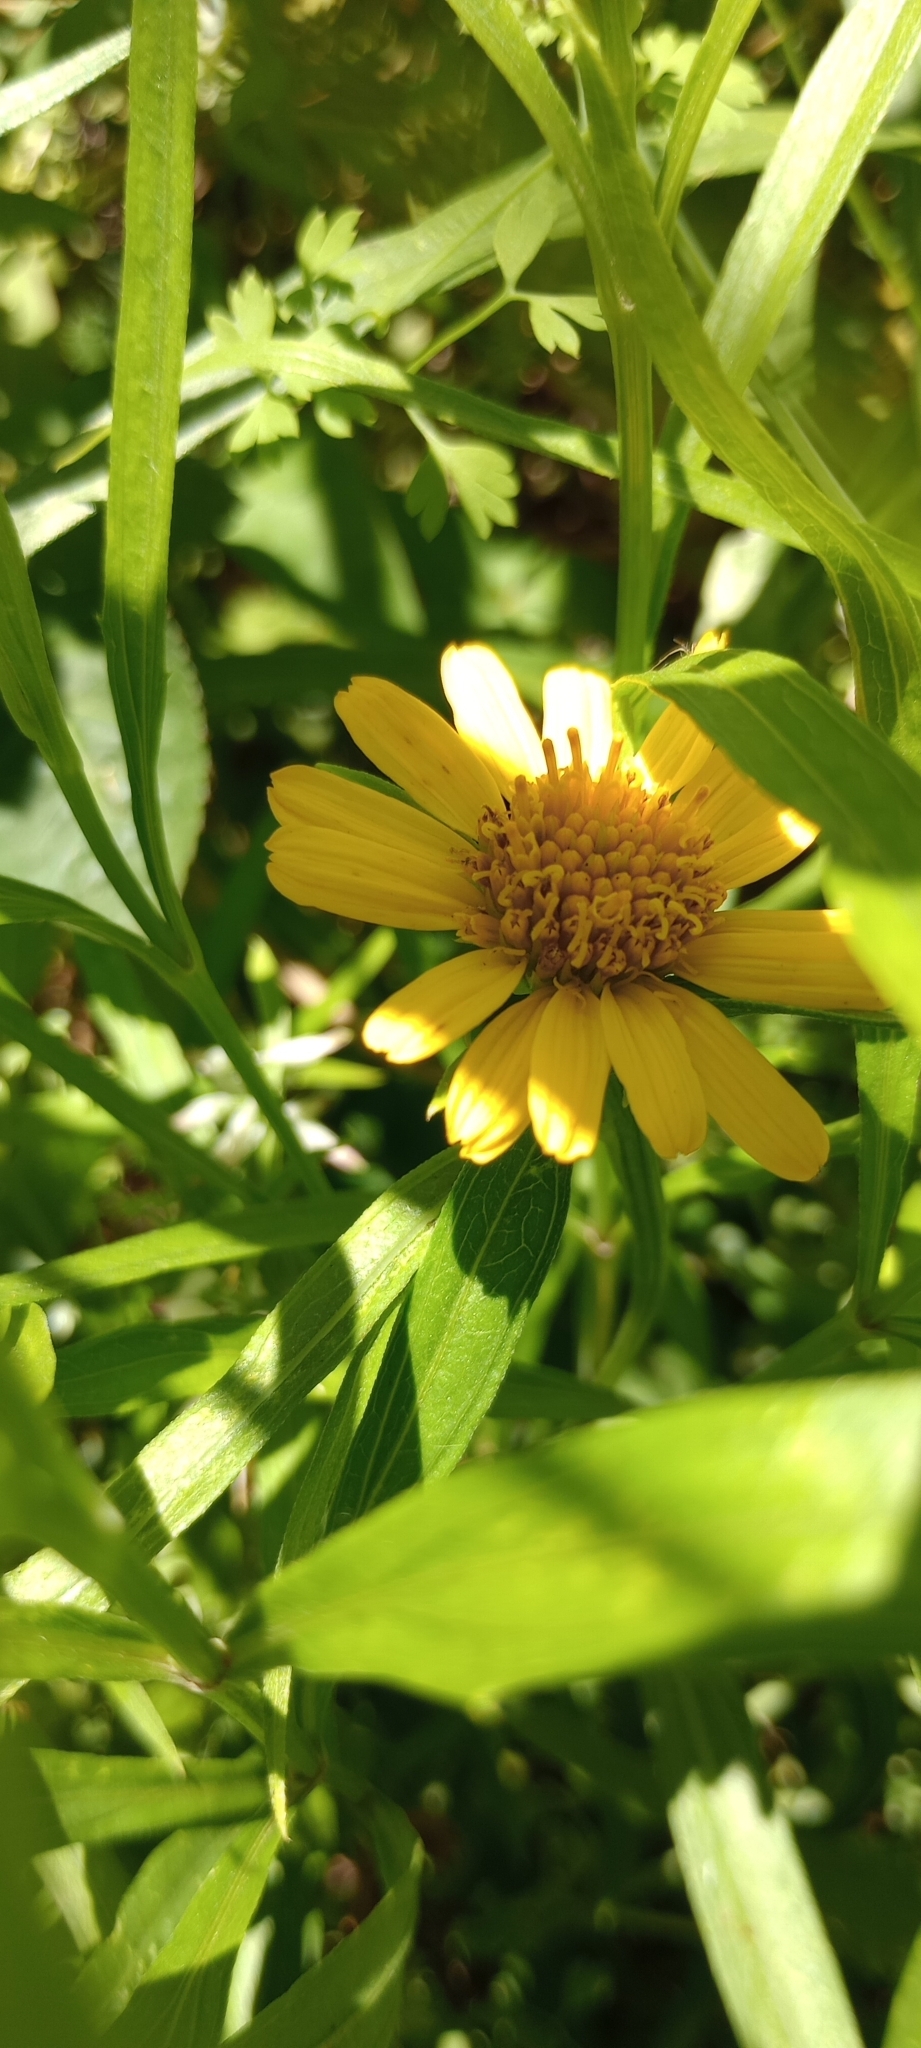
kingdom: Plantae
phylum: Tracheophyta
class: Magnoliopsida
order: Asterales
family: Asteraceae
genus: Pascalia
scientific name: Pascalia glauca
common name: Beach creeping oxeye
